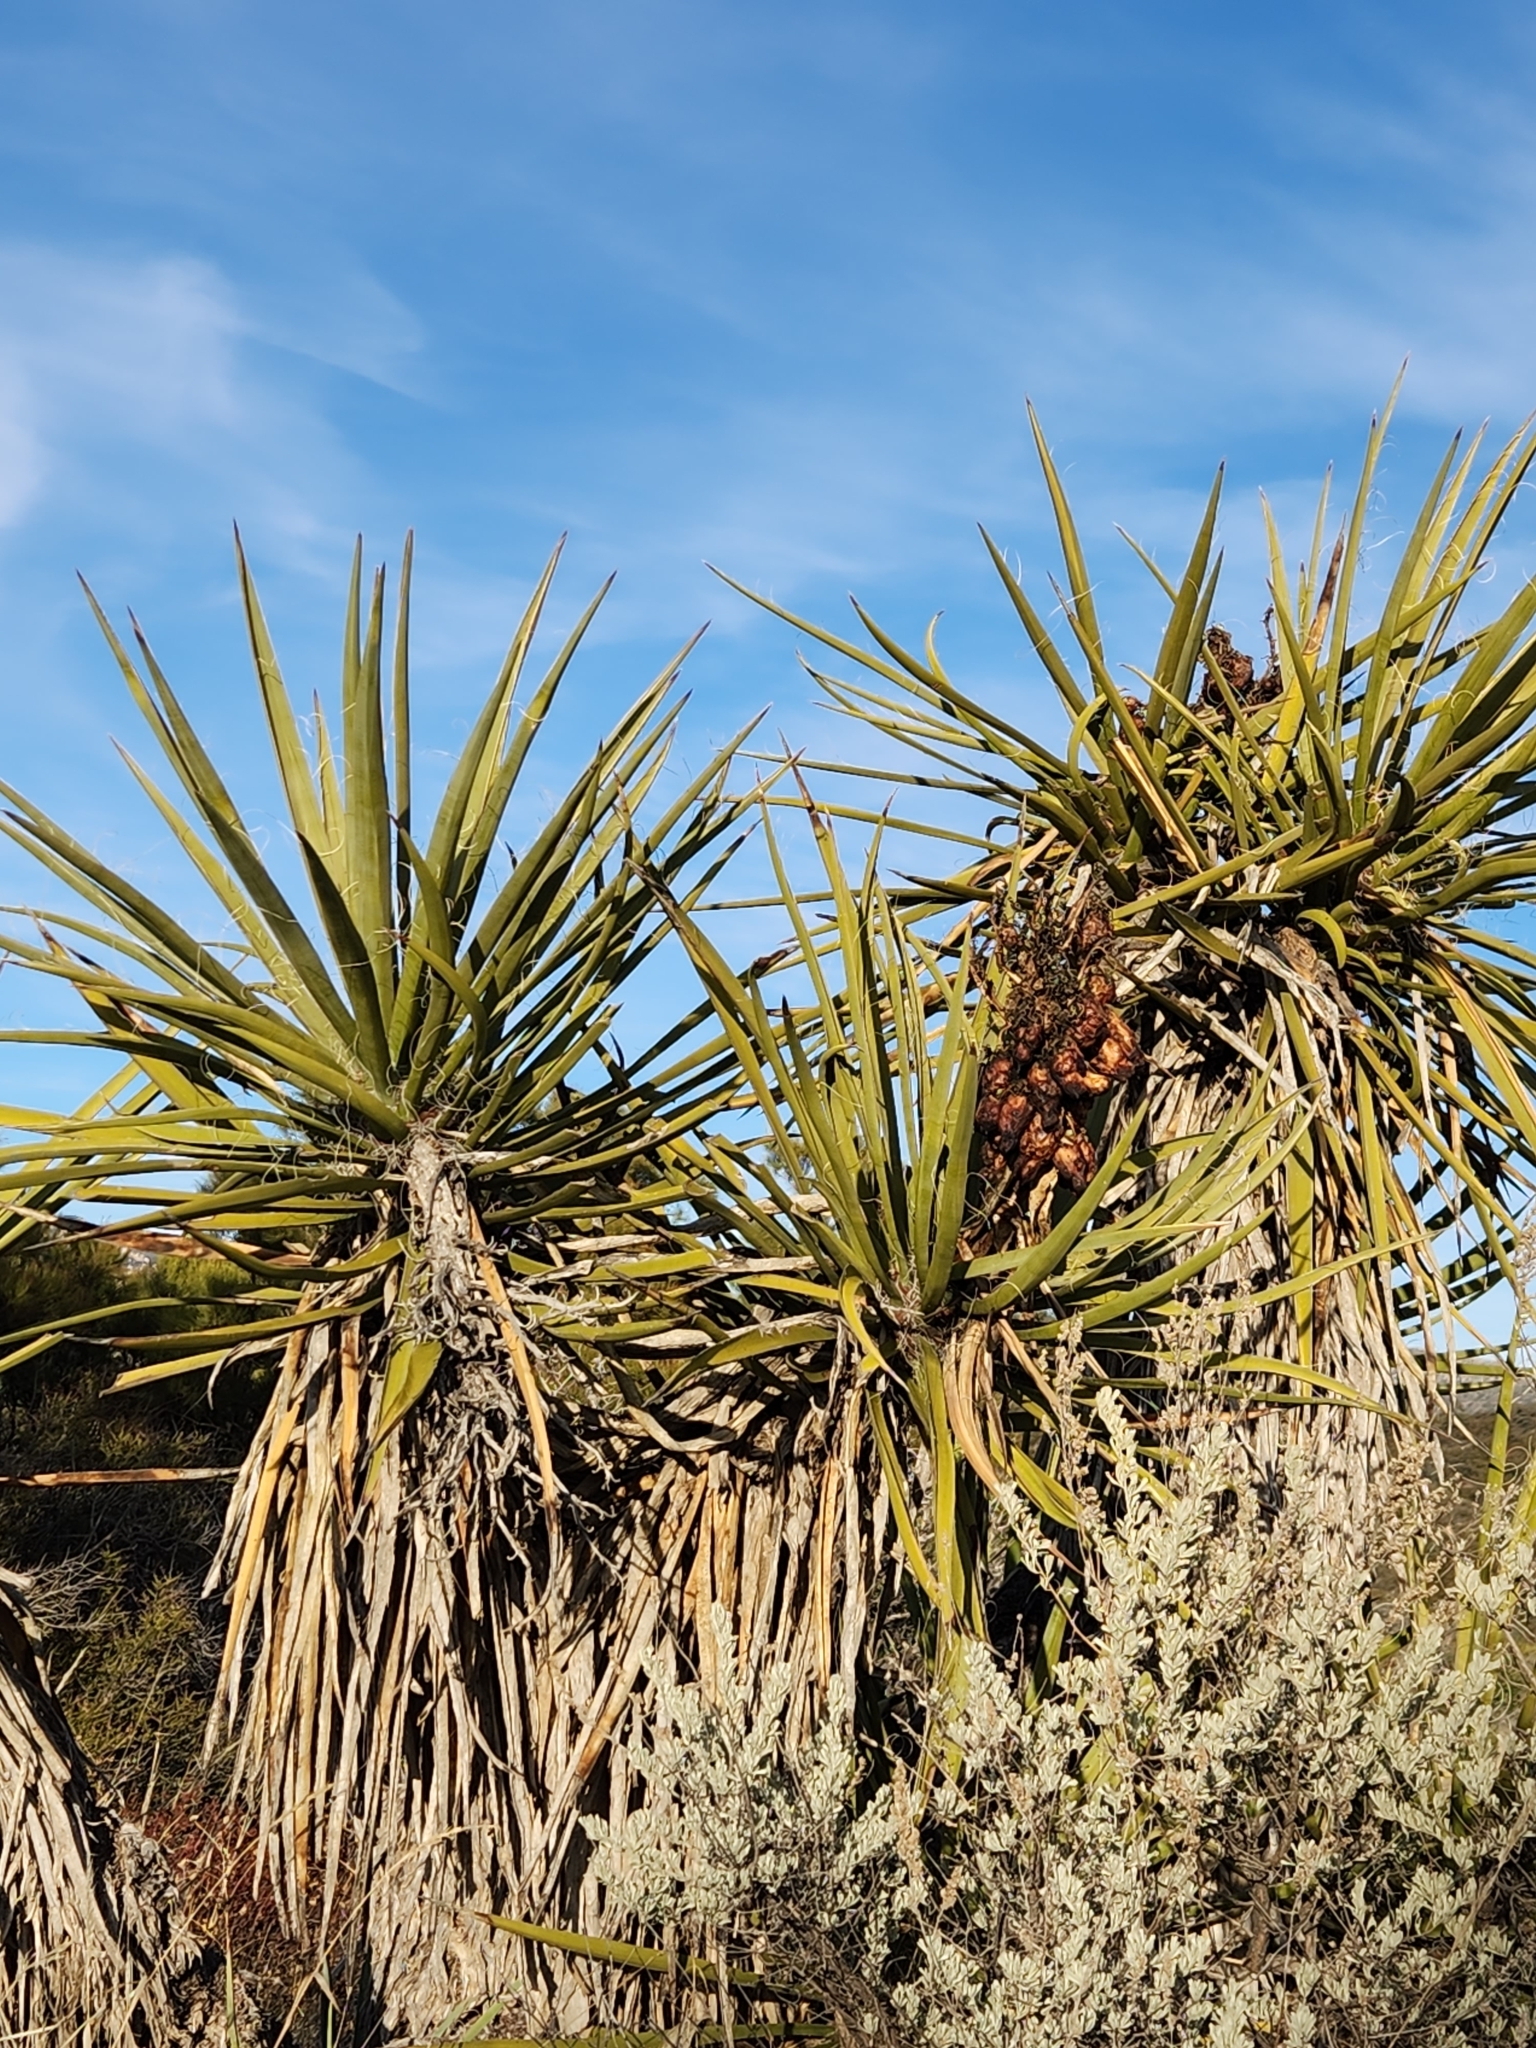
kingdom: Plantae
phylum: Tracheophyta
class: Liliopsida
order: Asparagales
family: Asparagaceae
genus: Yucca
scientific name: Yucca schidigera
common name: Mojave yucca
